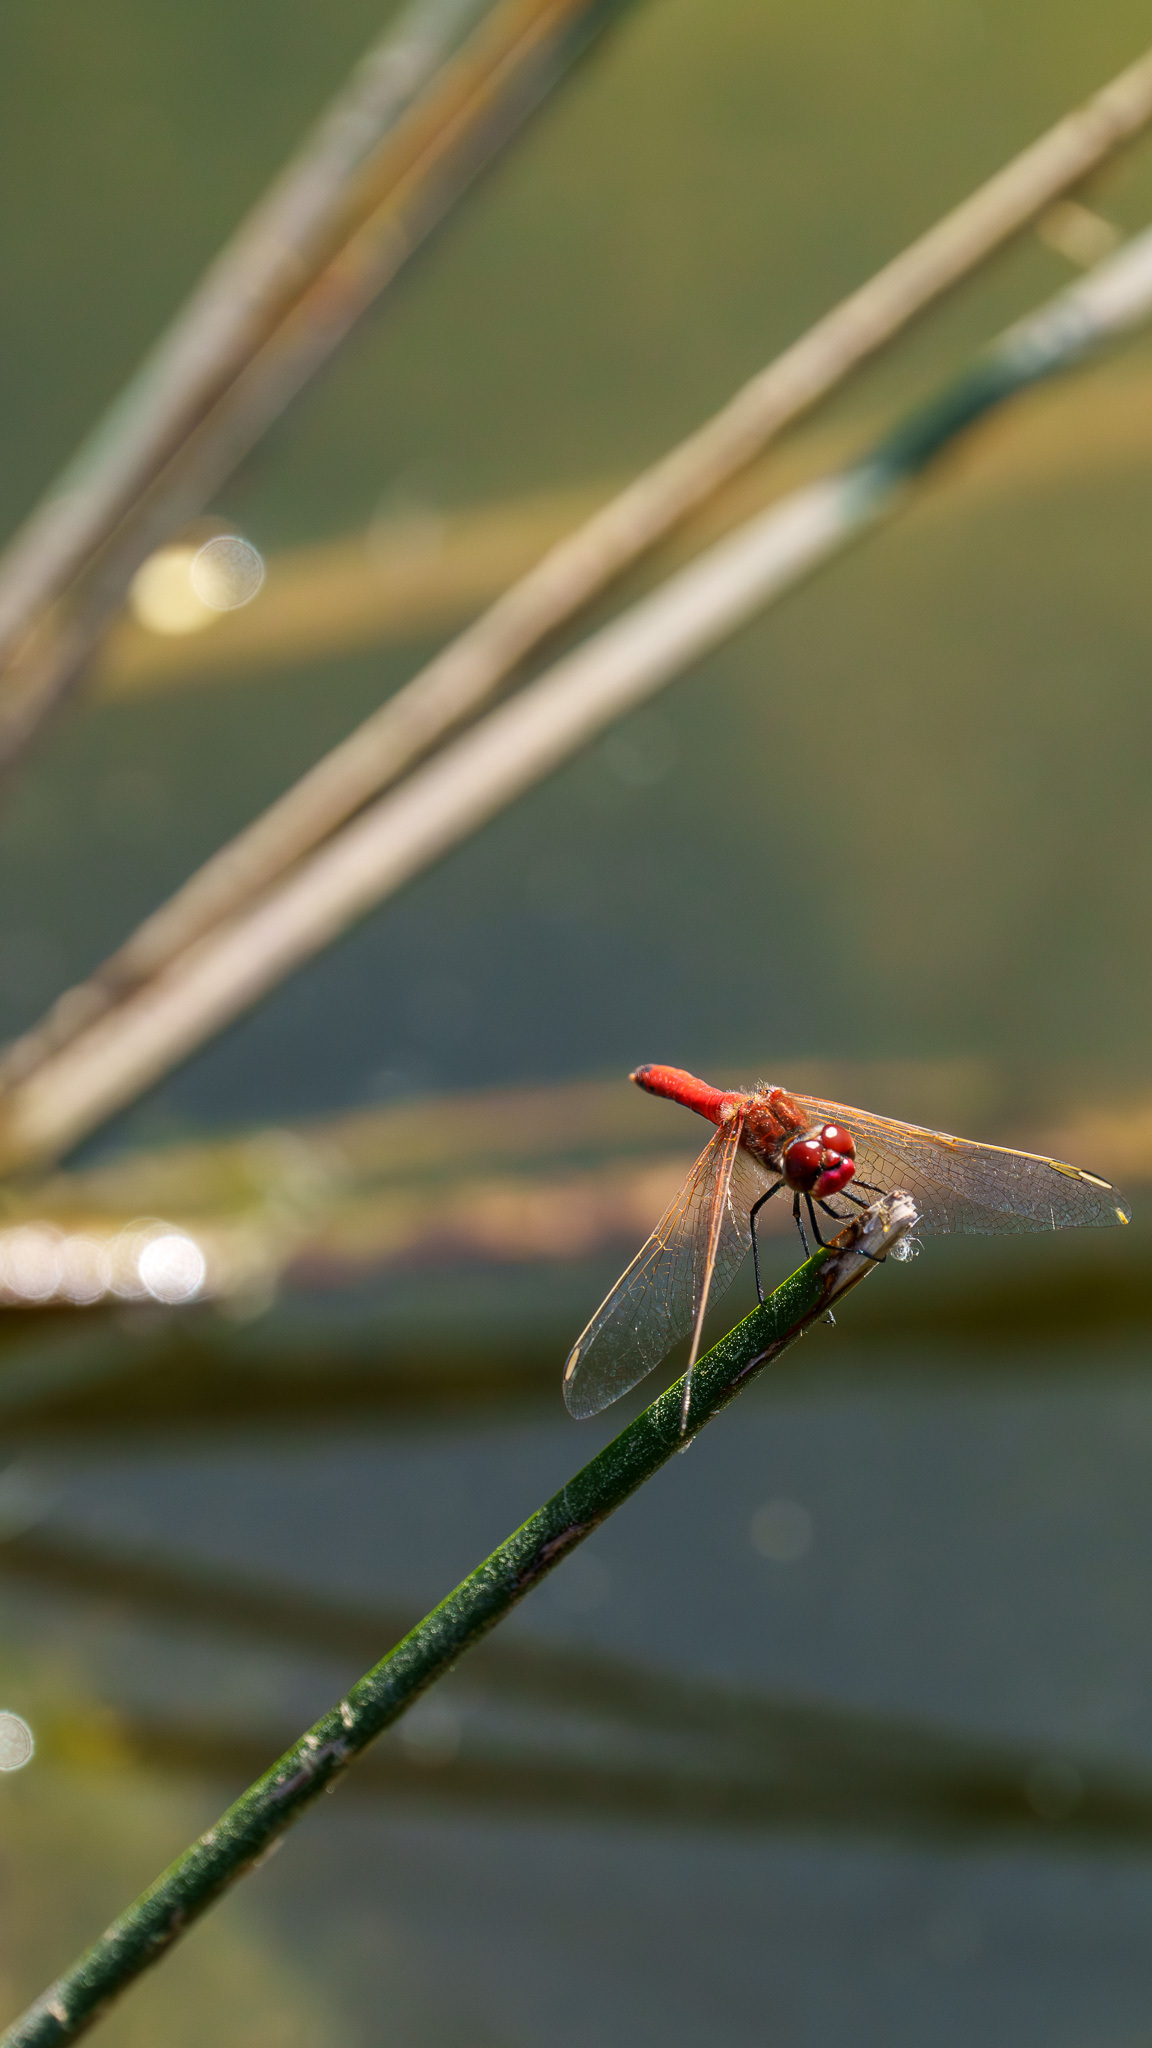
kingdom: Animalia
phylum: Arthropoda
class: Insecta
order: Odonata
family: Libellulidae
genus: Sympetrum
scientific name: Sympetrum fonscolombii
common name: Red-veined darter
